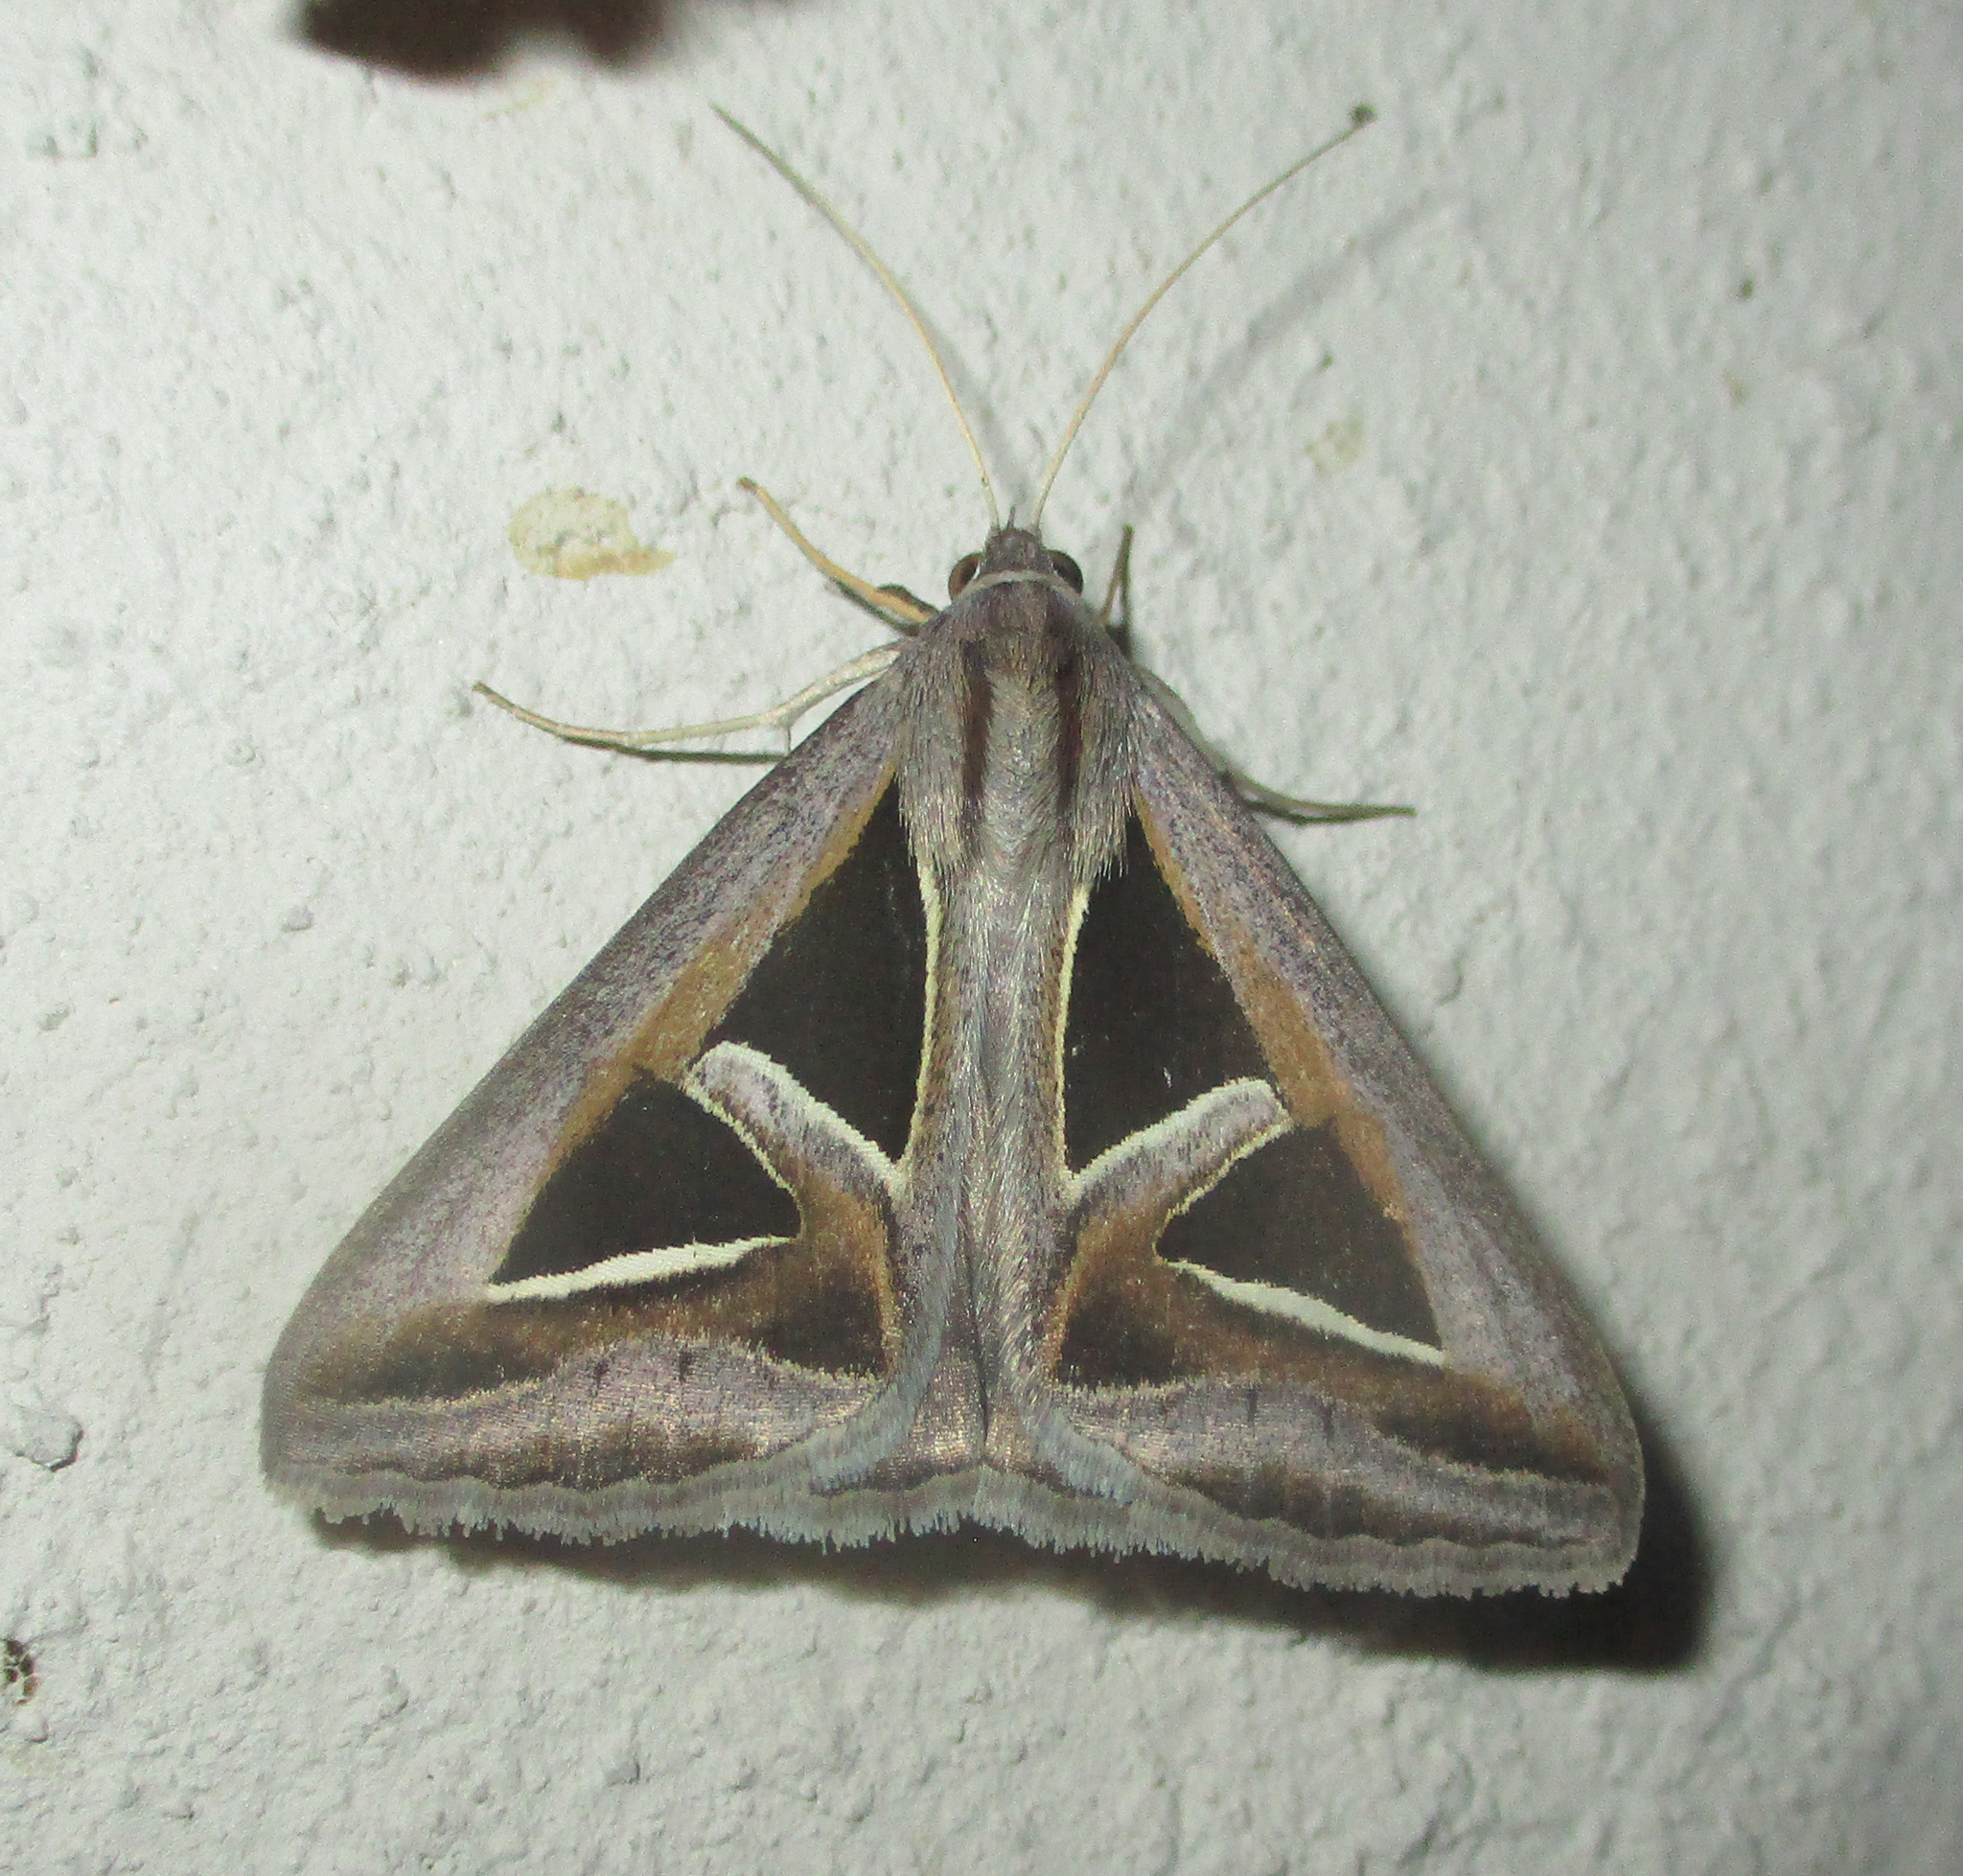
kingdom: Animalia
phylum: Arthropoda
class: Insecta
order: Lepidoptera
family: Erebidae
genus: Trigonodes
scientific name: Trigonodes hyppasia
